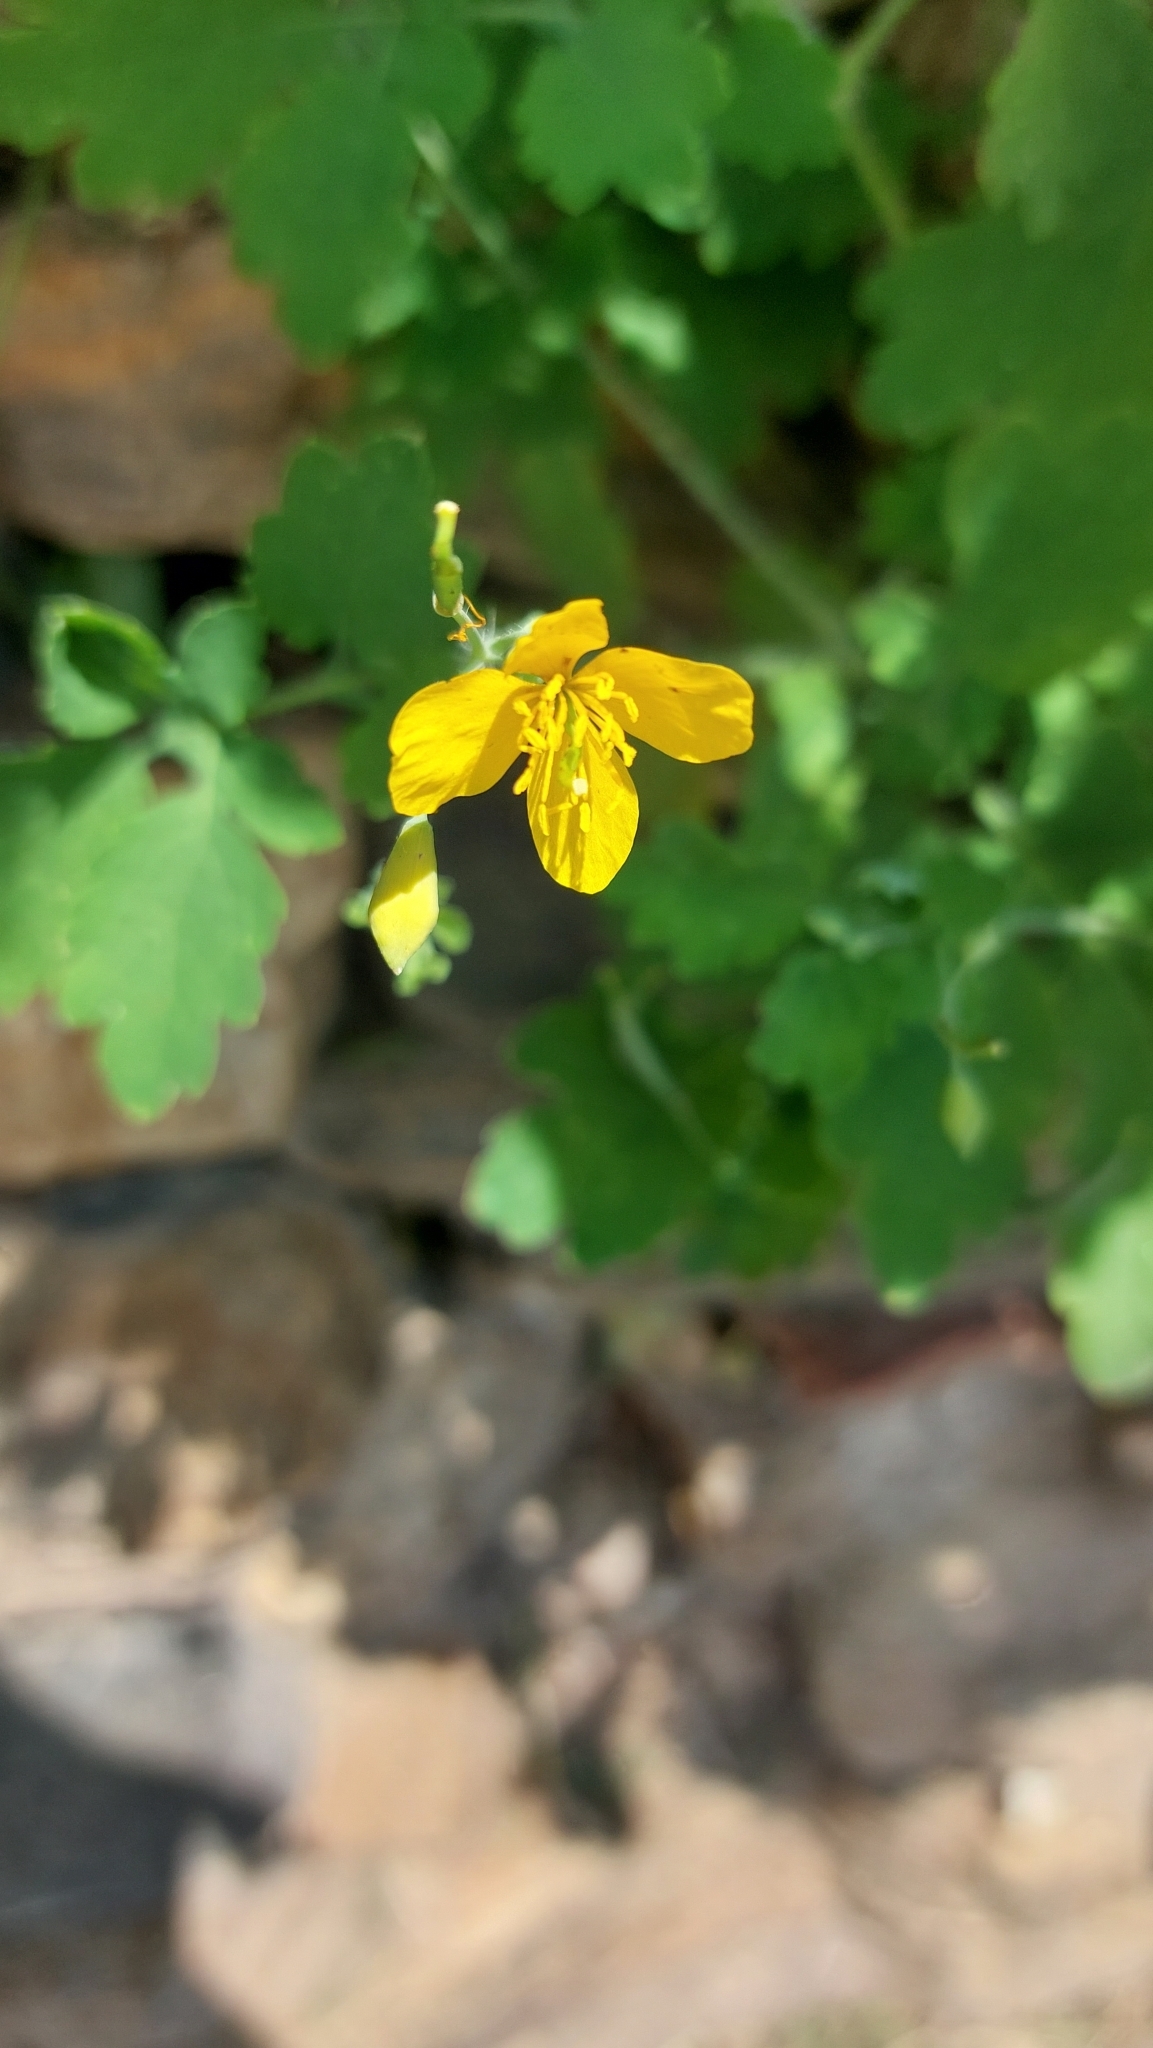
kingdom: Plantae
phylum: Tracheophyta
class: Magnoliopsida
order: Ranunculales
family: Papaveraceae
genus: Chelidonium
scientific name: Chelidonium majus
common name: Greater celandine
